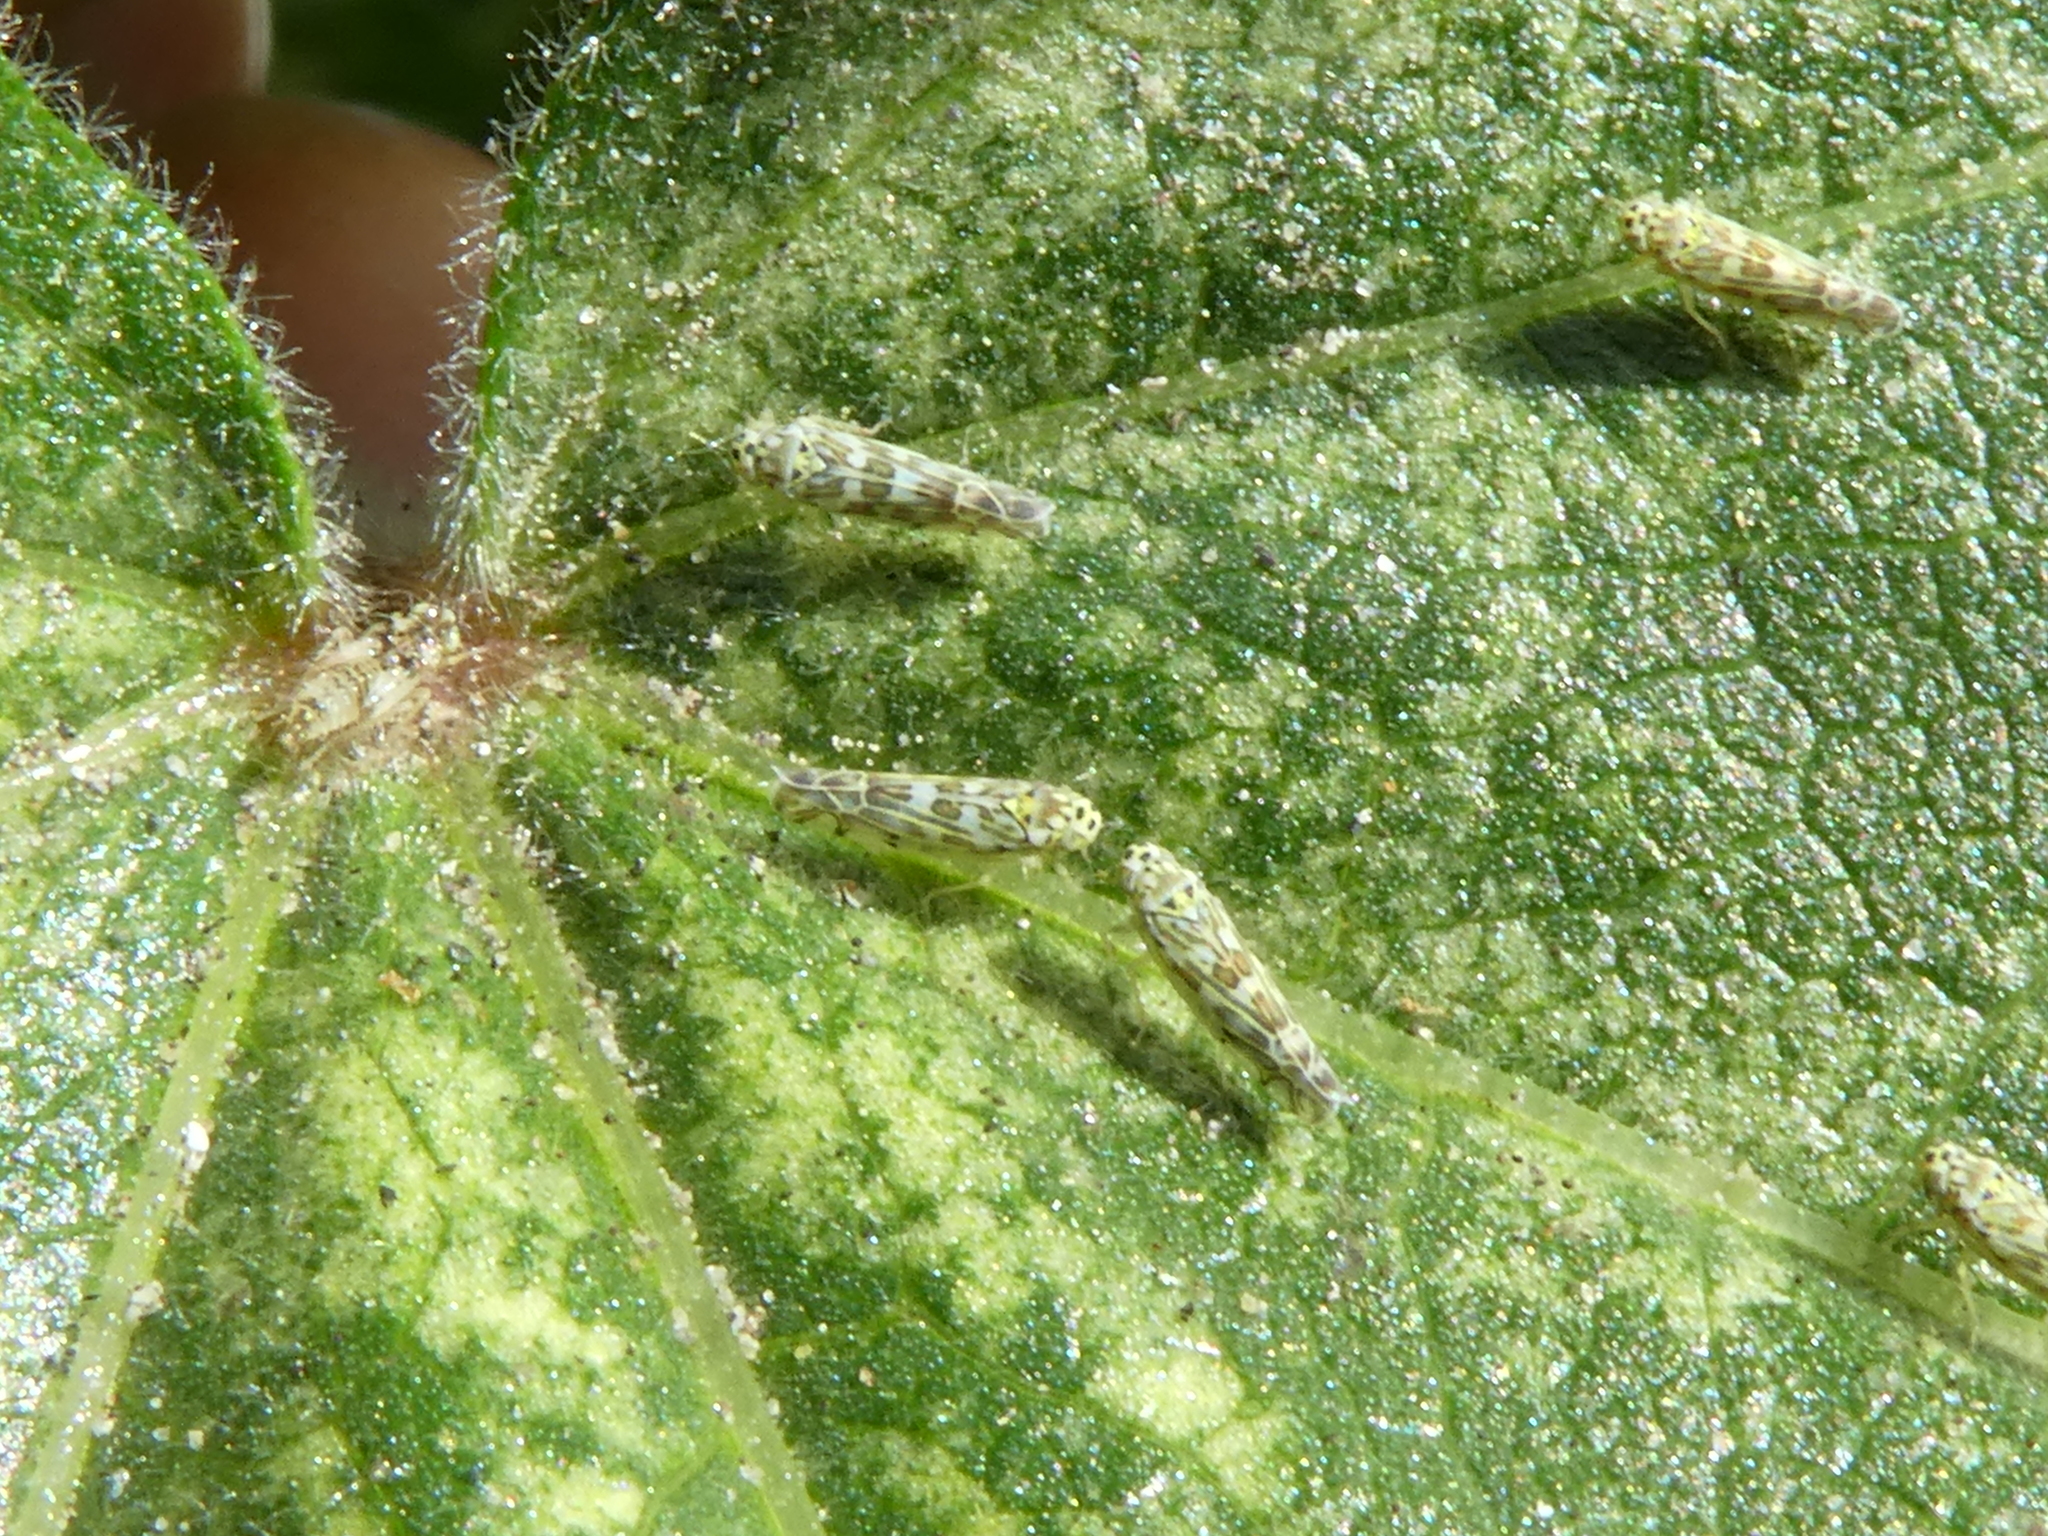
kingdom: Animalia
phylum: Arthropoda
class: Insecta
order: Hemiptera
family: Cicadellidae
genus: Eupteryx
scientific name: Eupteryx melissae
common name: Herb leafhopper
